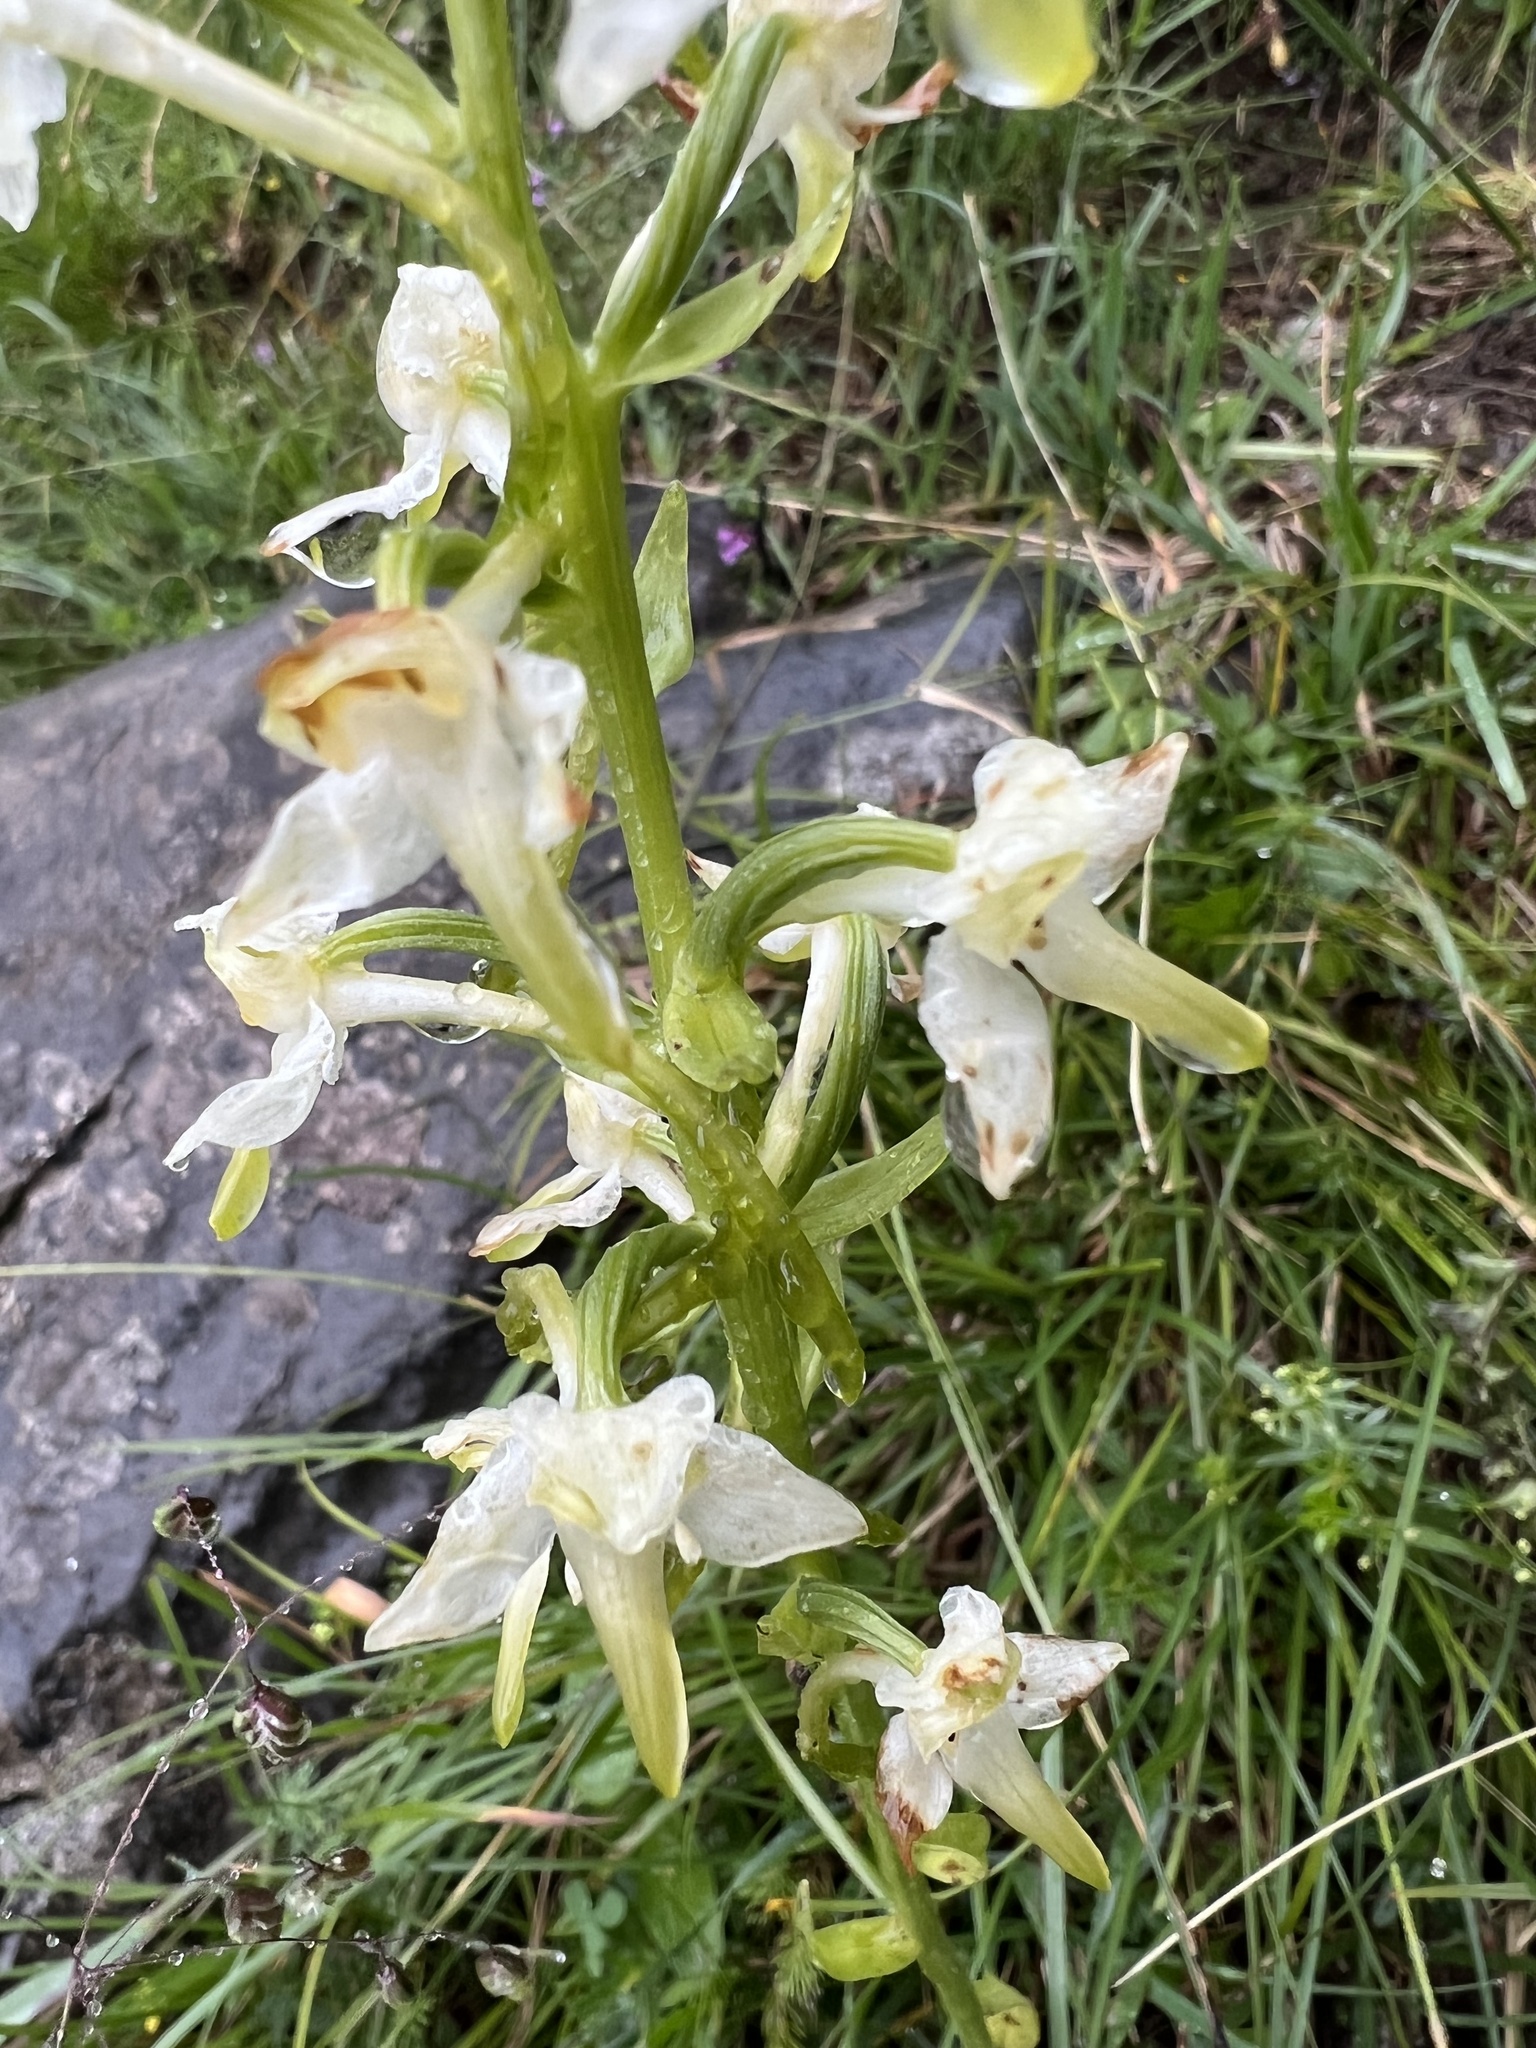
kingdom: Plantae
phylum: Tracheophyta
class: Liliopsida
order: Asparagales
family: Orchidaceae
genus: Platanthera
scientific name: Platanthera chlorantha
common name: Greater butterfly-orchid
